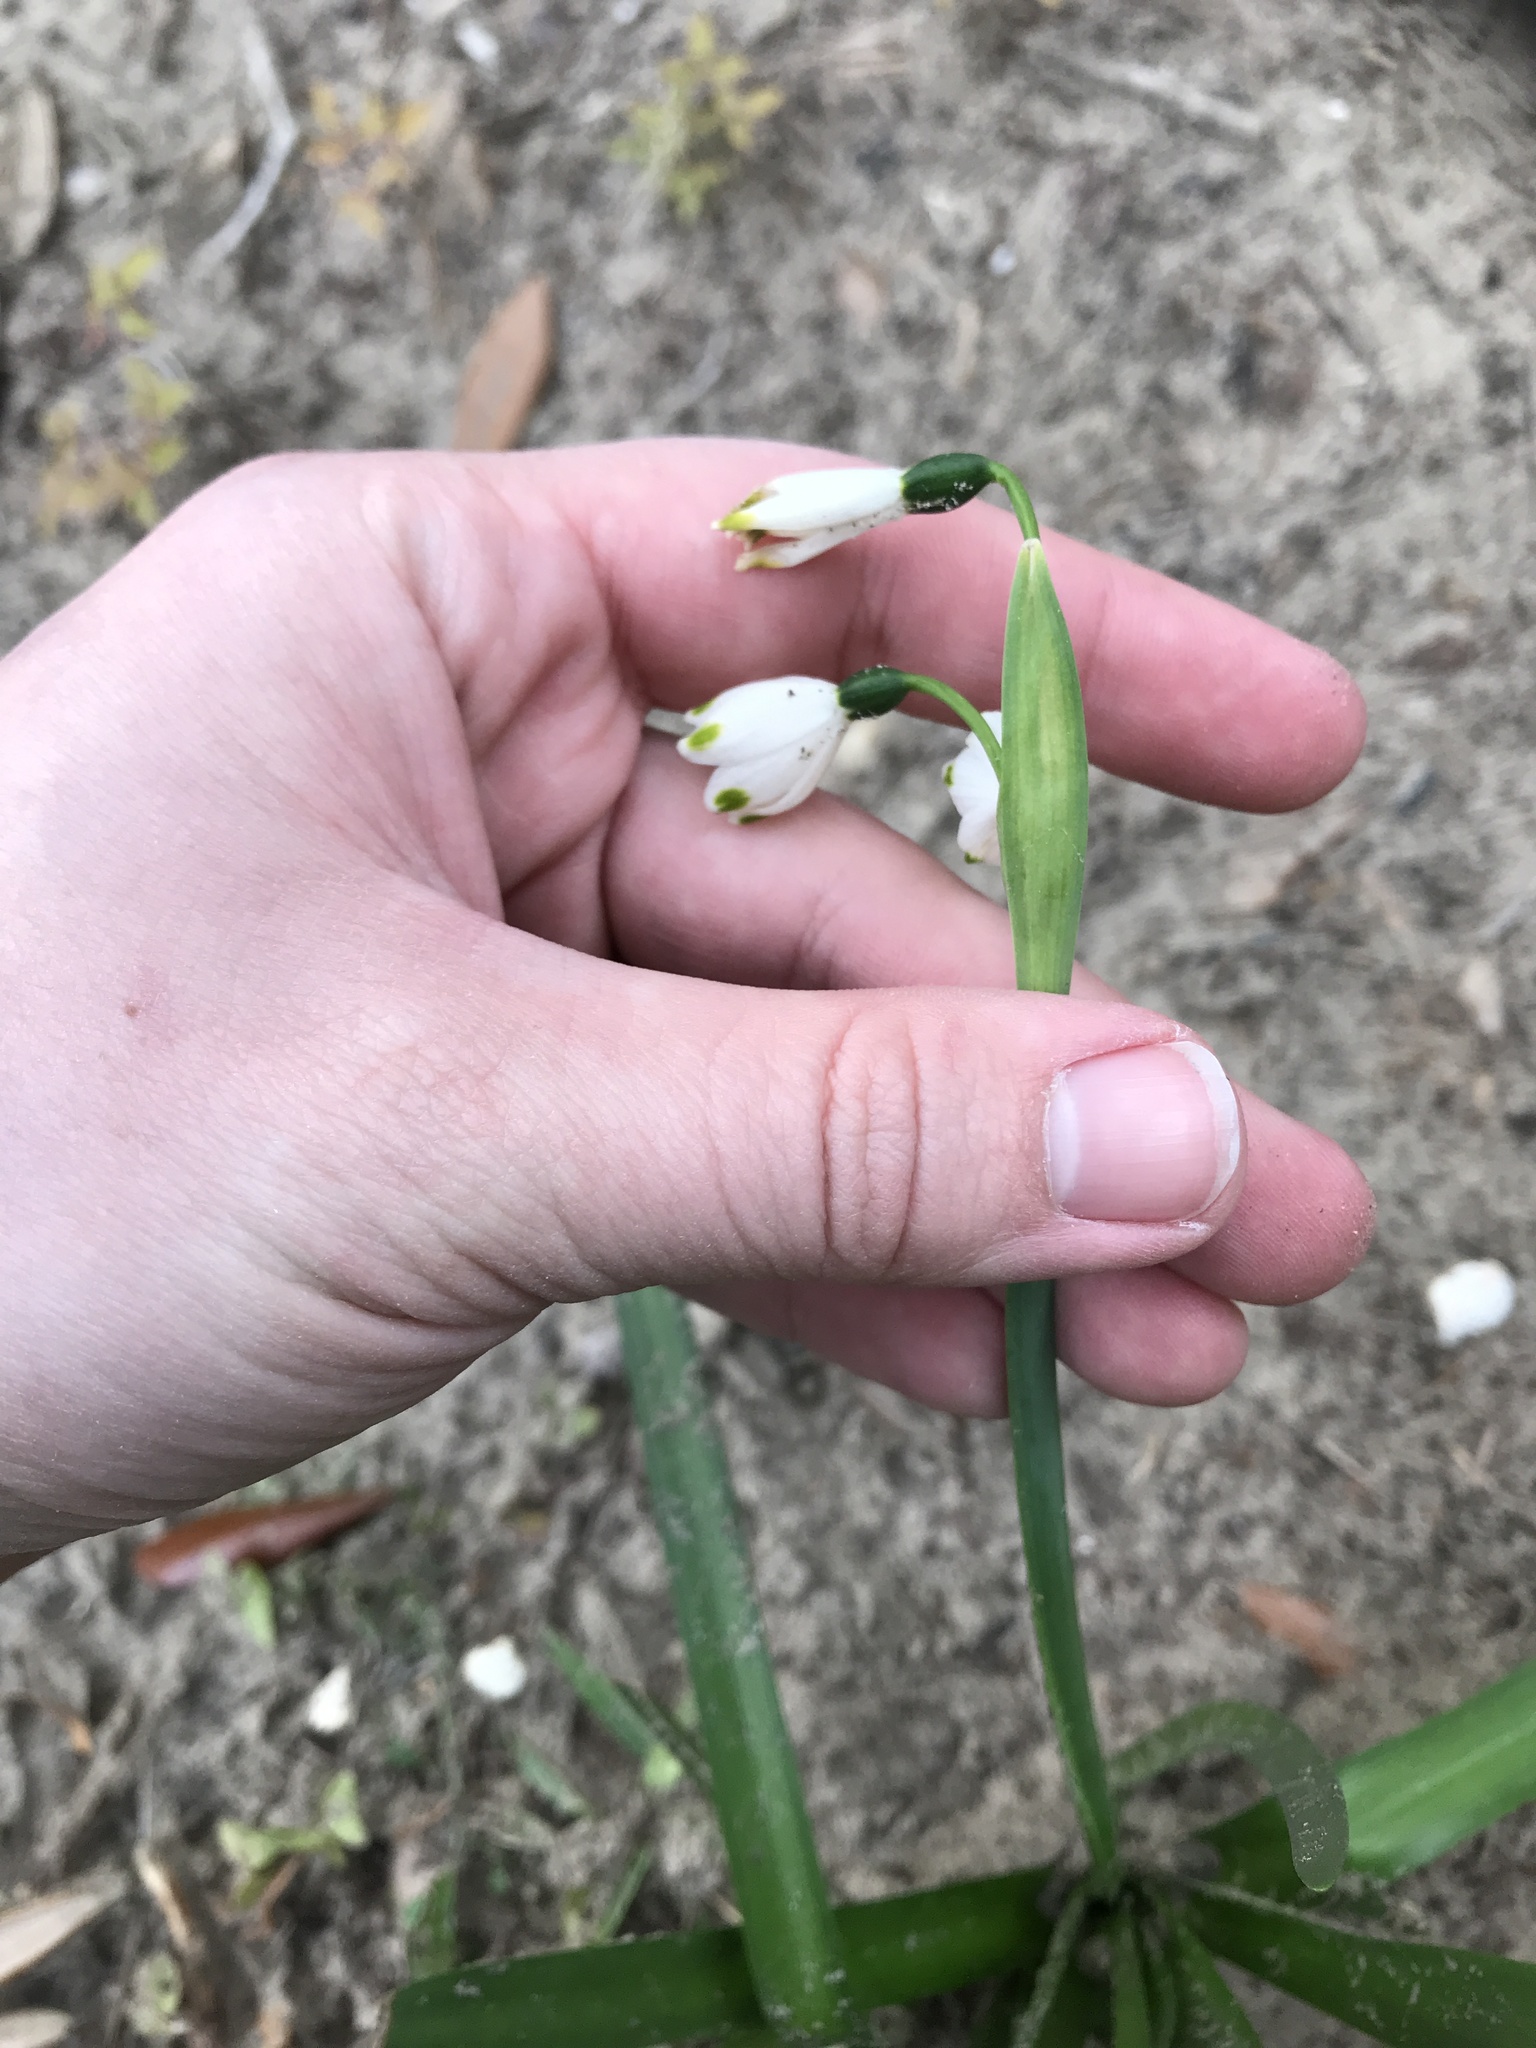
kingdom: Plantae
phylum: Tracheophyta
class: Liliopsida
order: Asparagales
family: Amaryllidaceae
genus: Leucojum
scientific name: Leucojum aestivum
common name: Summer snowflake
